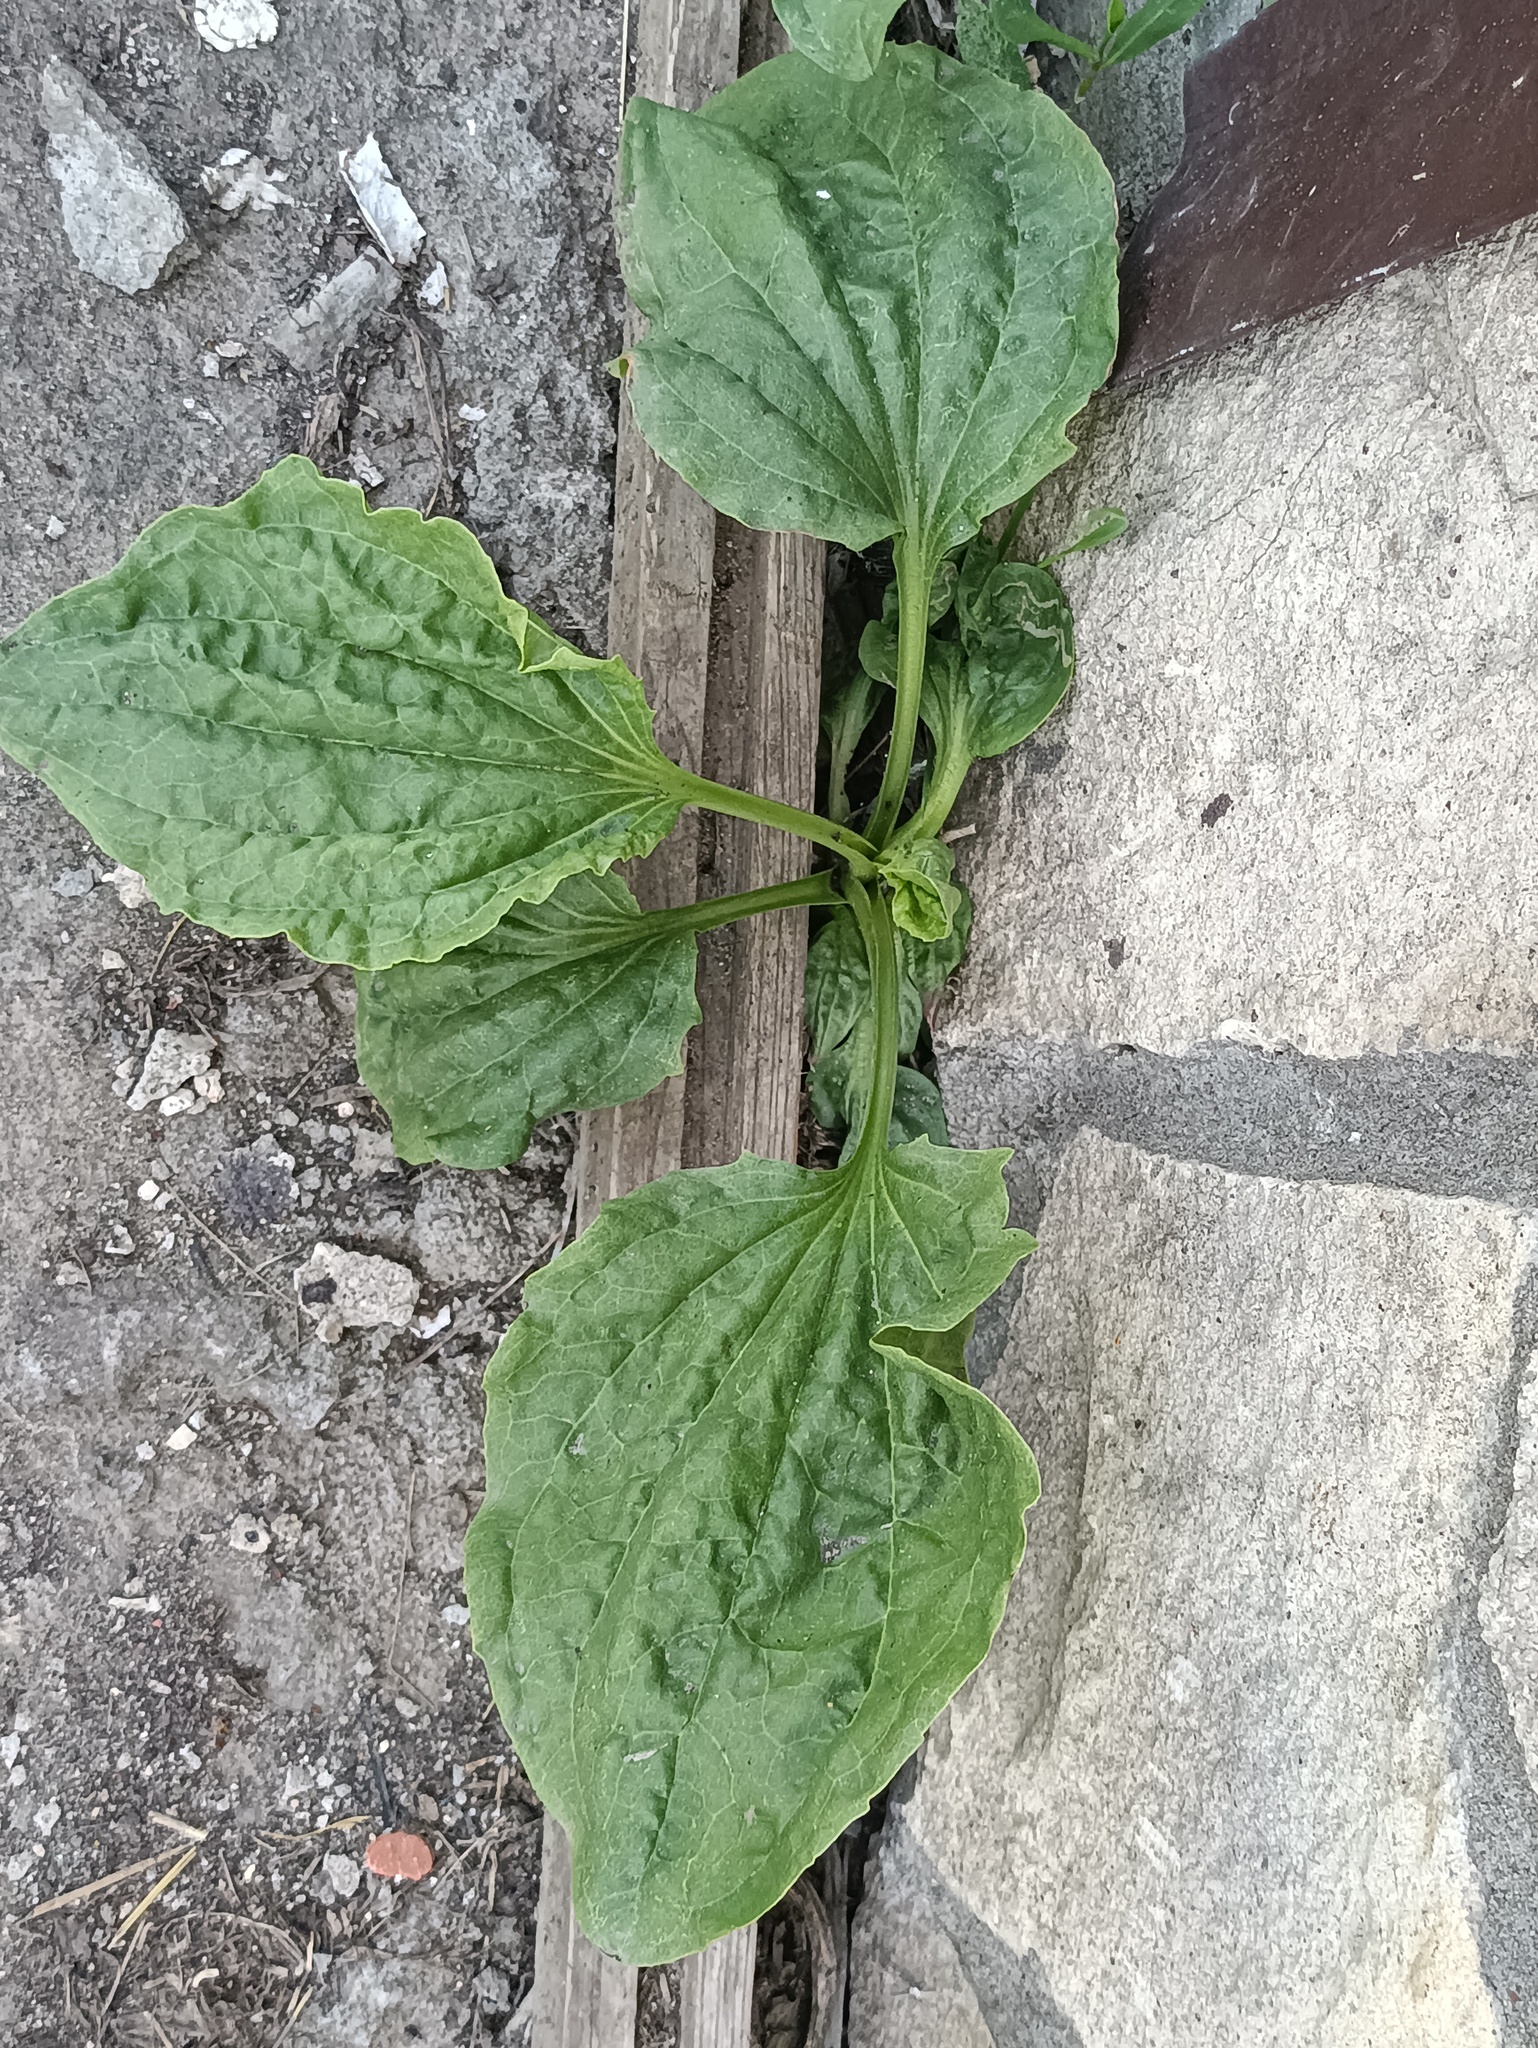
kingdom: Plantae
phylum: Tracheophyta
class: Magnoliopsida
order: Lamiales
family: Plantaginaceae
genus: Plantago
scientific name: Plantago major
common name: Common plantain
